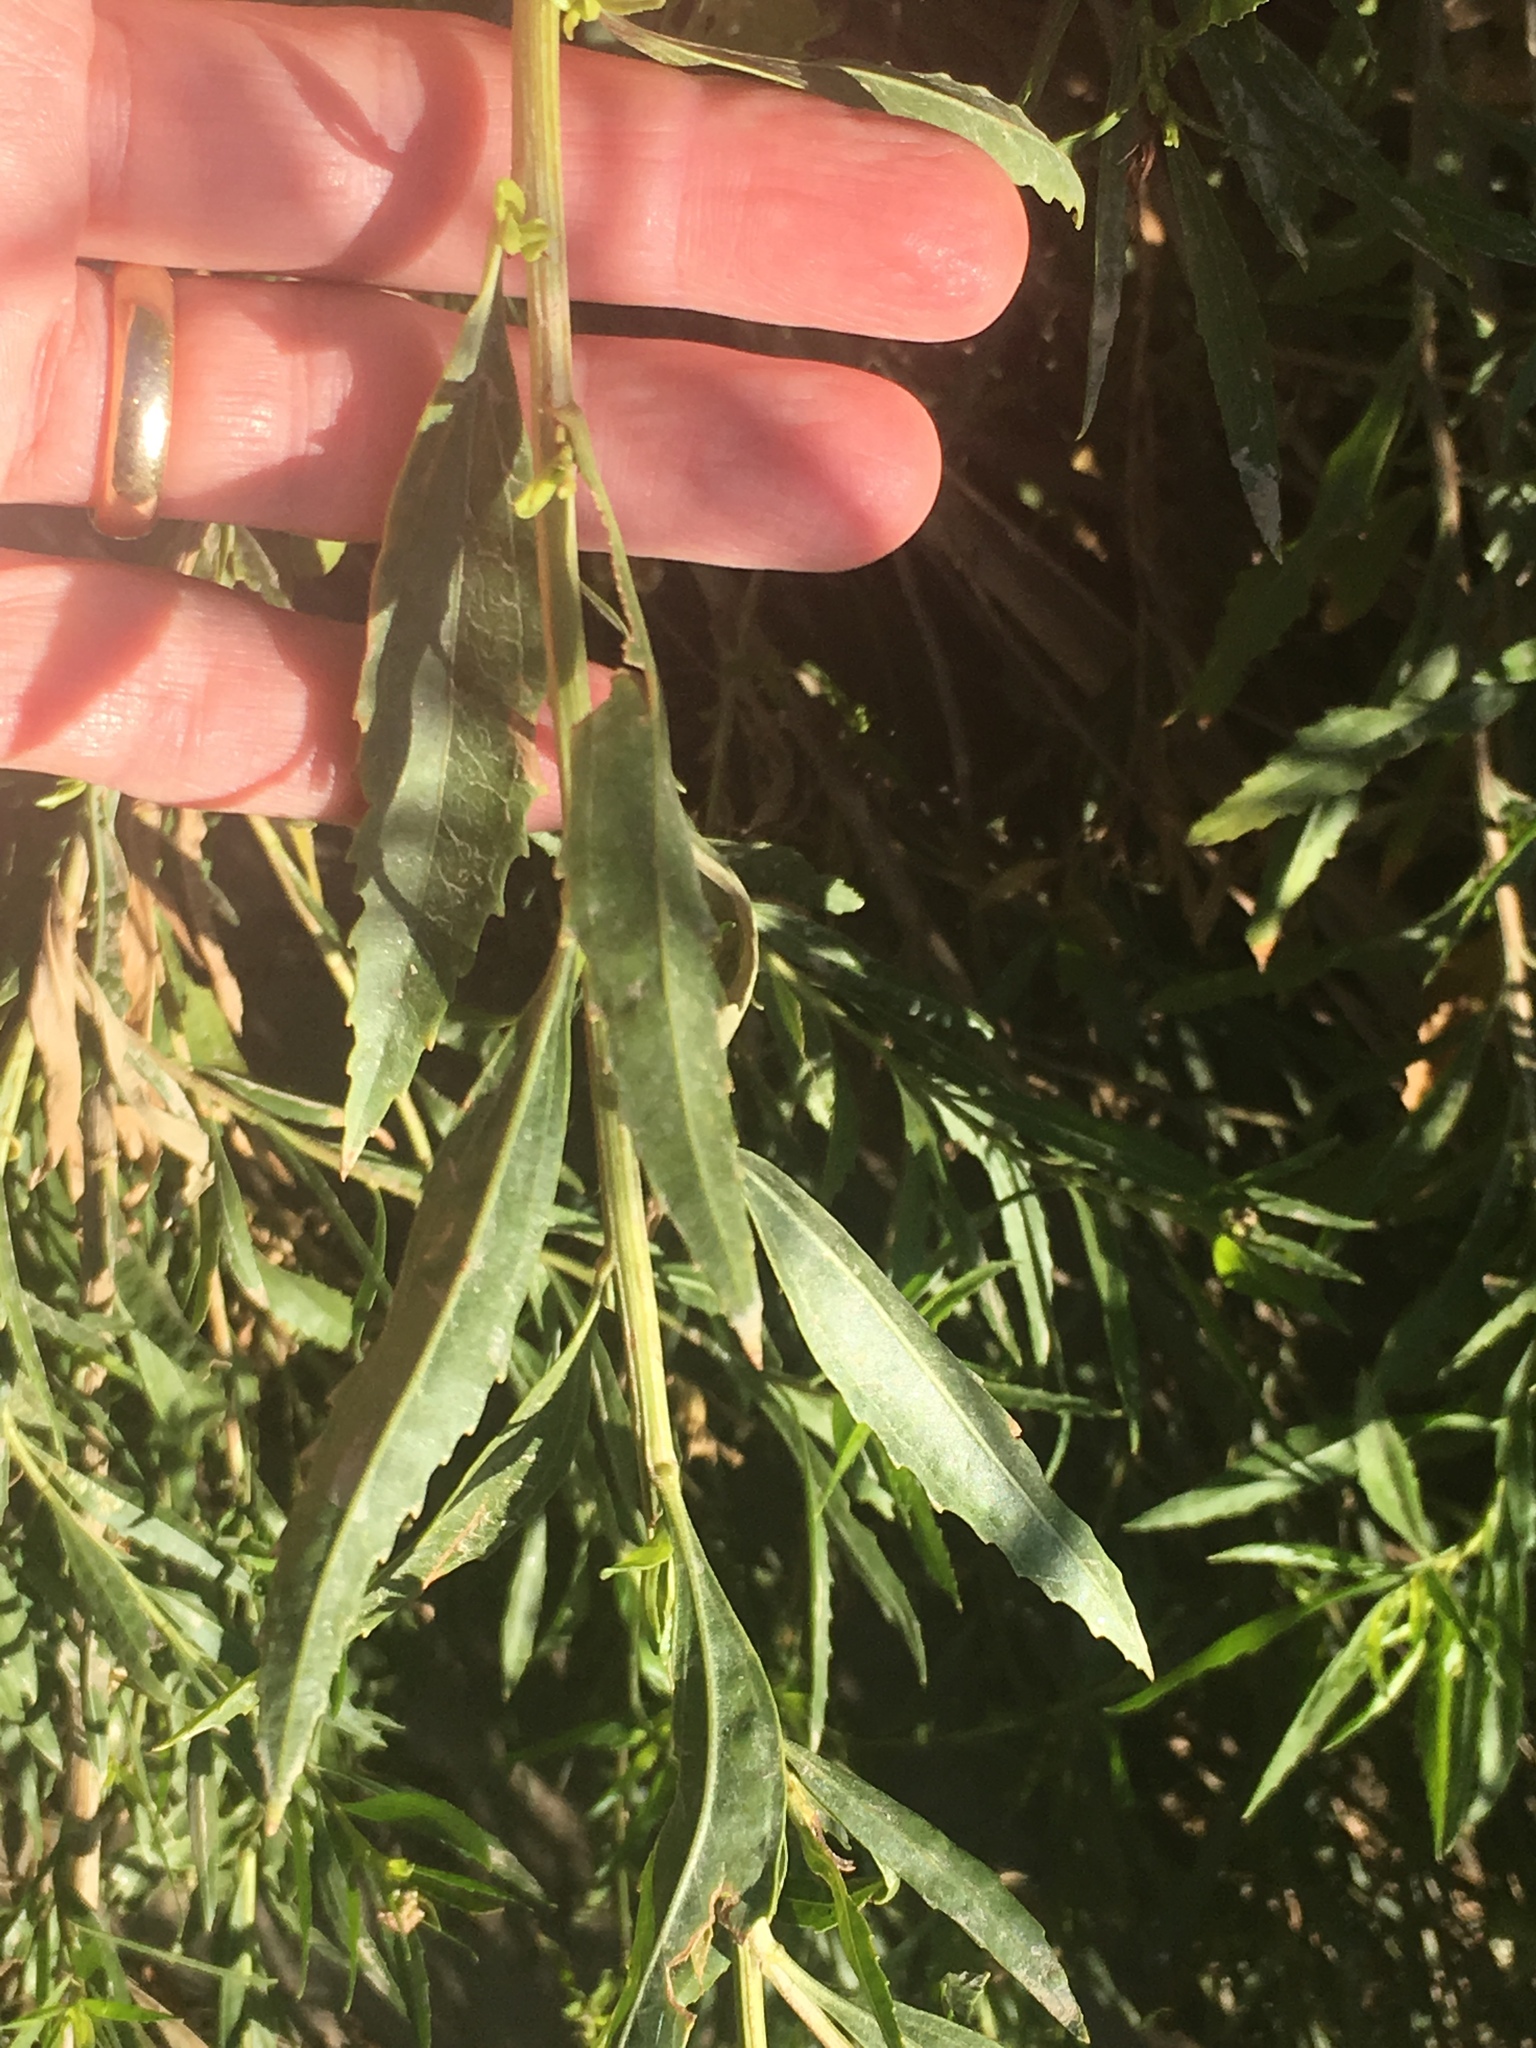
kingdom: Plantae
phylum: Tracheophyta
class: Magnoliopsida
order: Asterales
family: Asteraceae
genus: Baccharis
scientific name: Baccharis salicifolia
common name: Sticky baccharis
